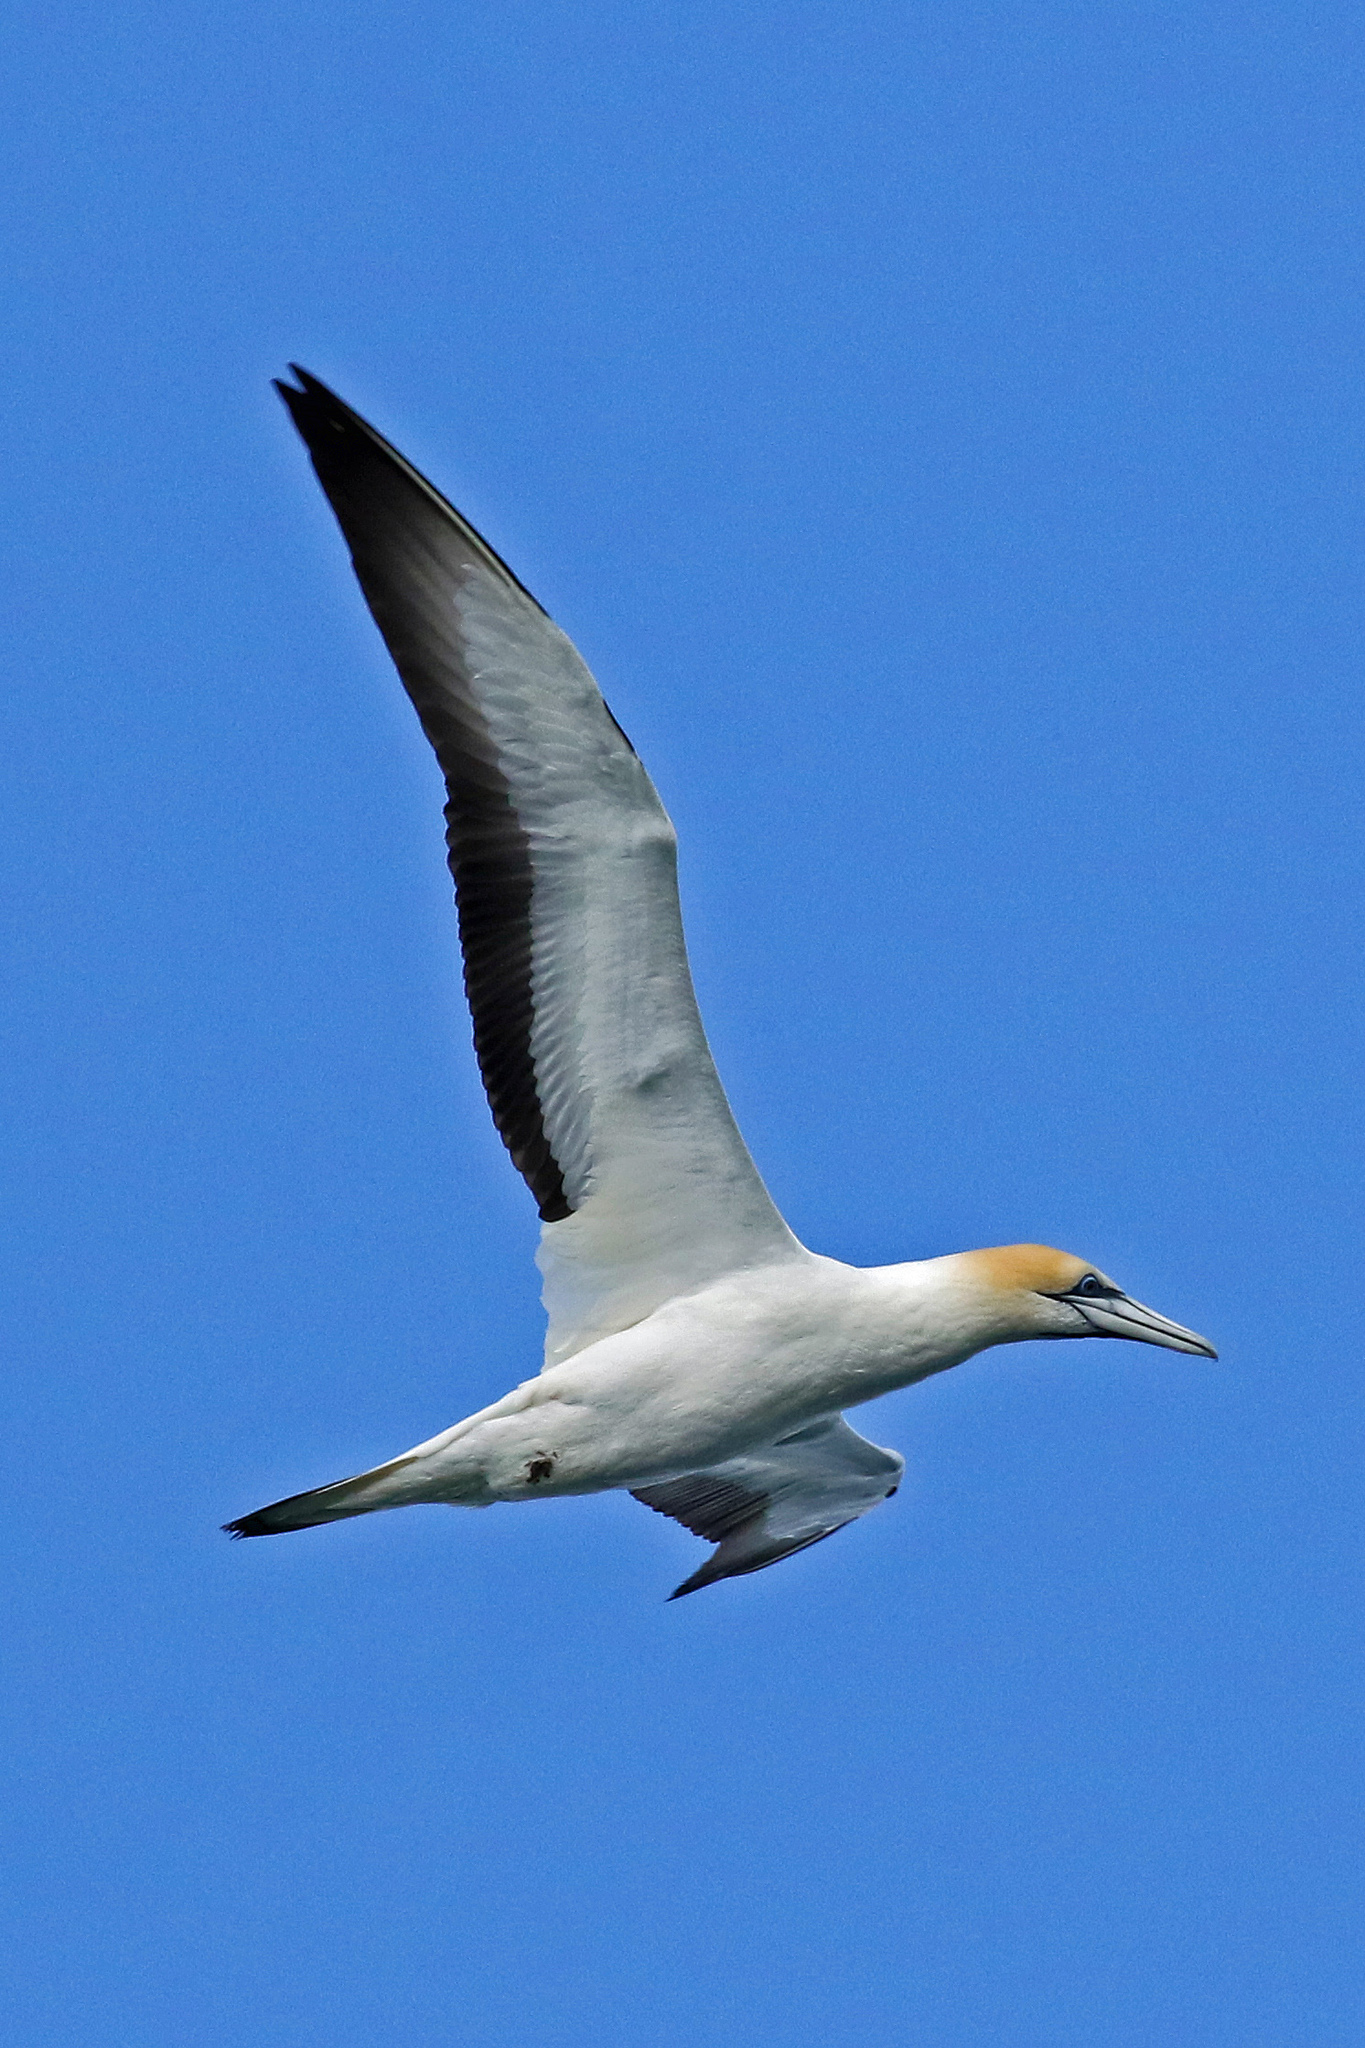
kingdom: Animalia
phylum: Chordata
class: Aves
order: Suliformes
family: Sulidae
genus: Morus
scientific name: Morus serrator
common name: Australasian gannet
